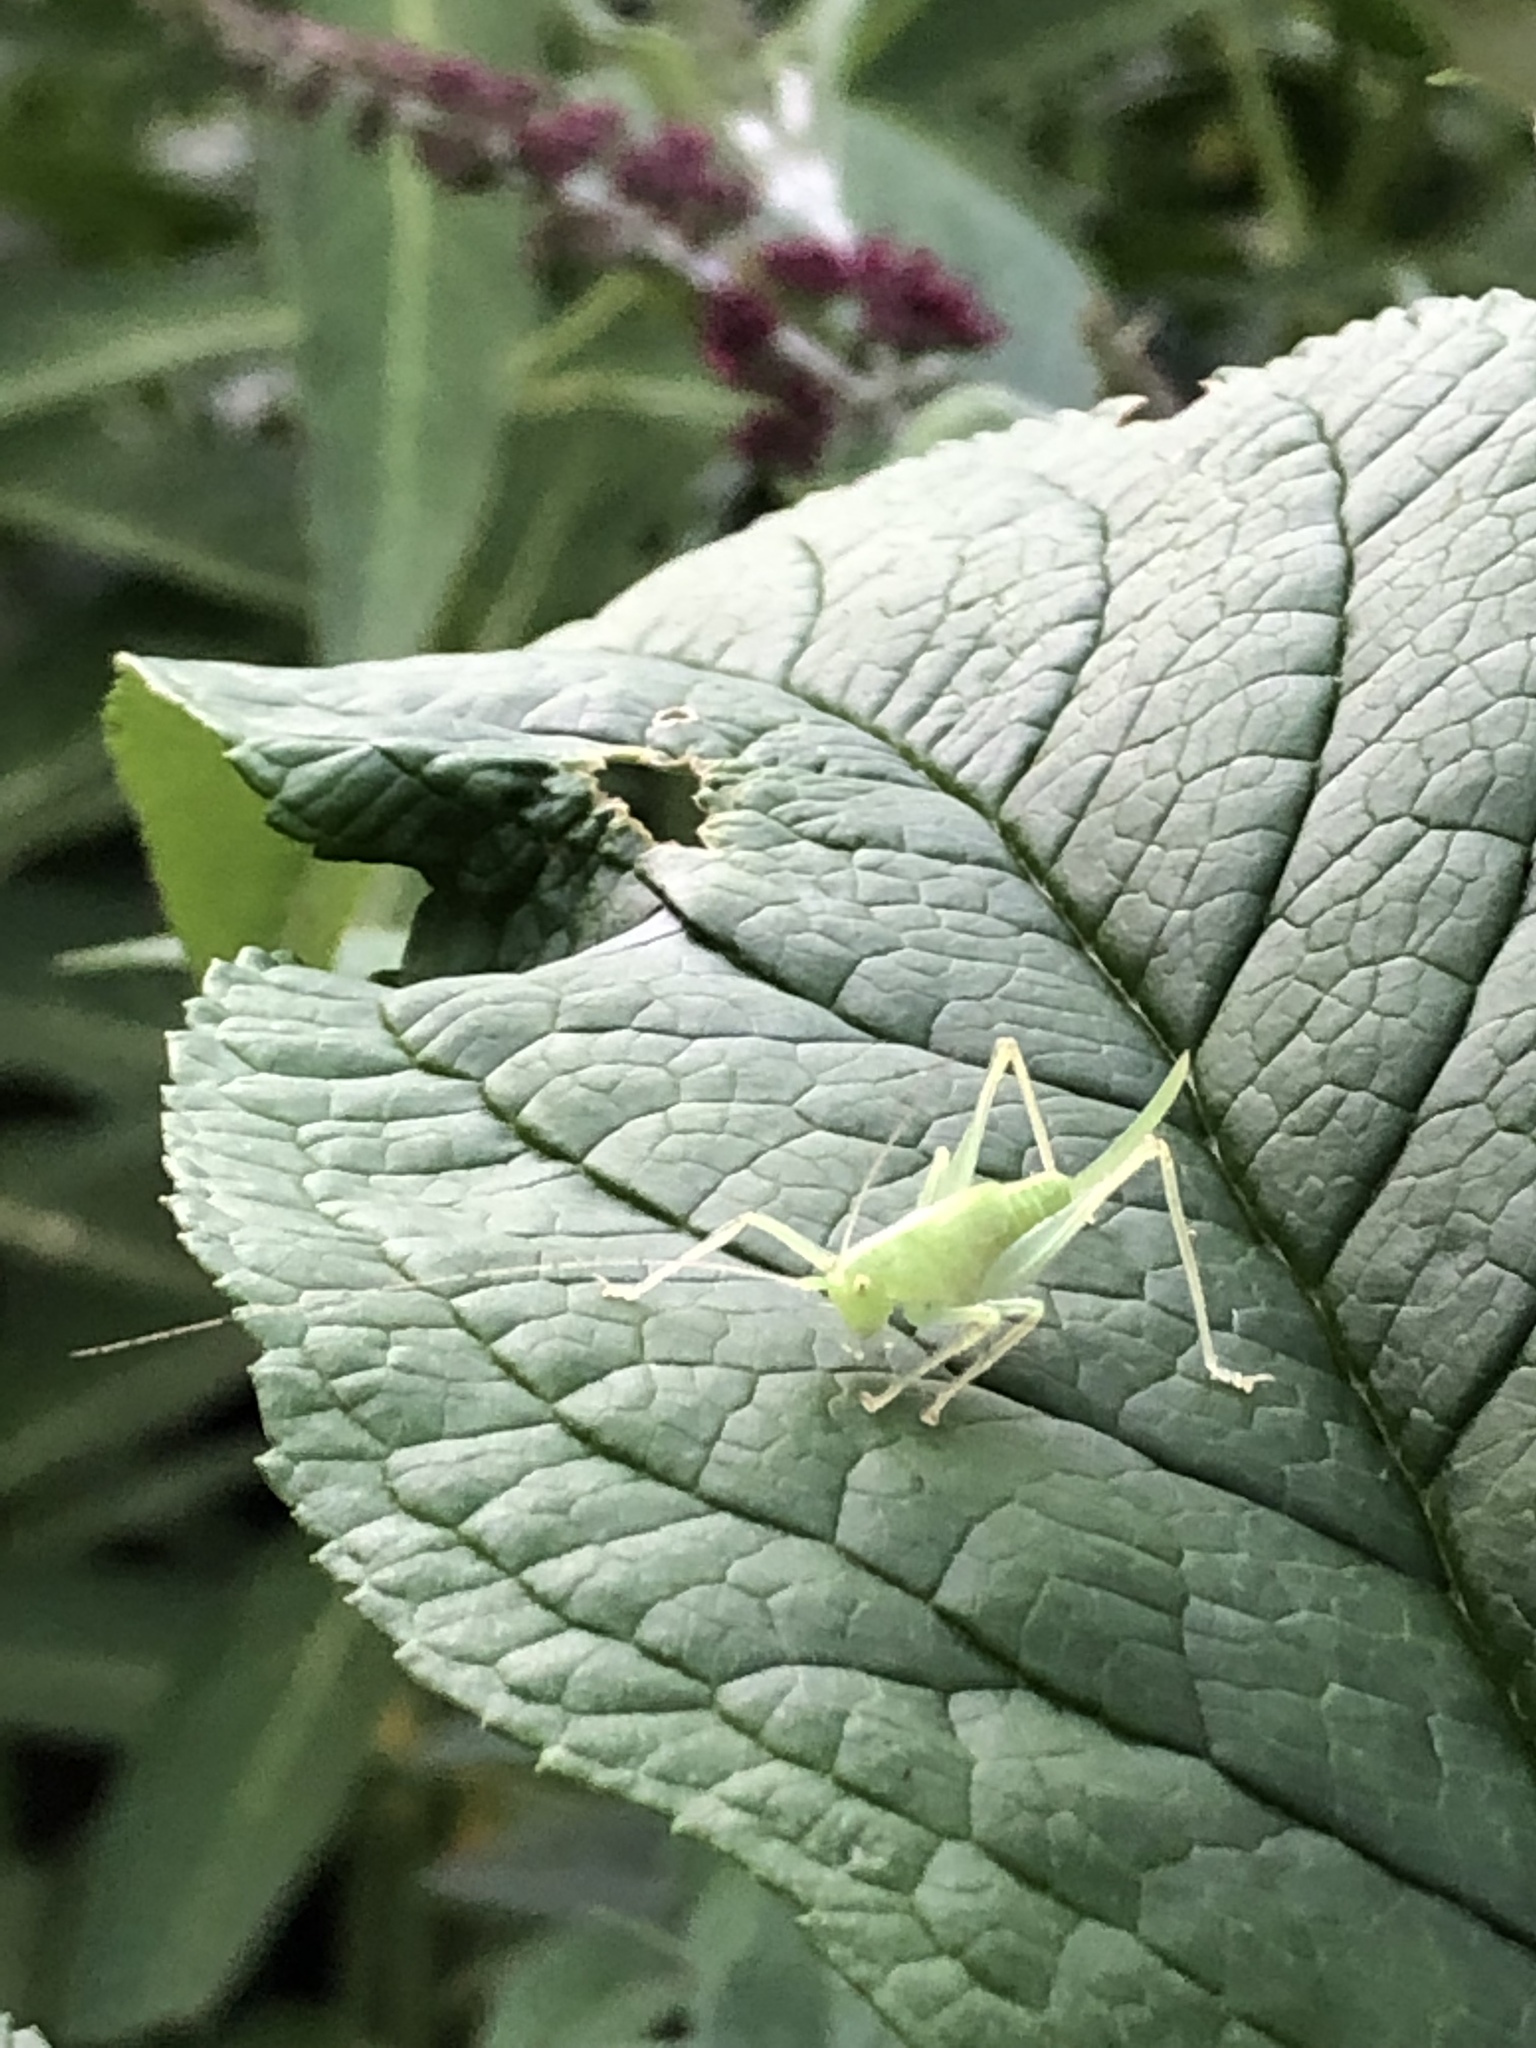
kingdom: Animalia
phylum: Arthropoda
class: Insecta
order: Orthoptera
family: Tettigoniidae
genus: Meconema
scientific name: Meconema thalassinum
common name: Oak bush-cricket
